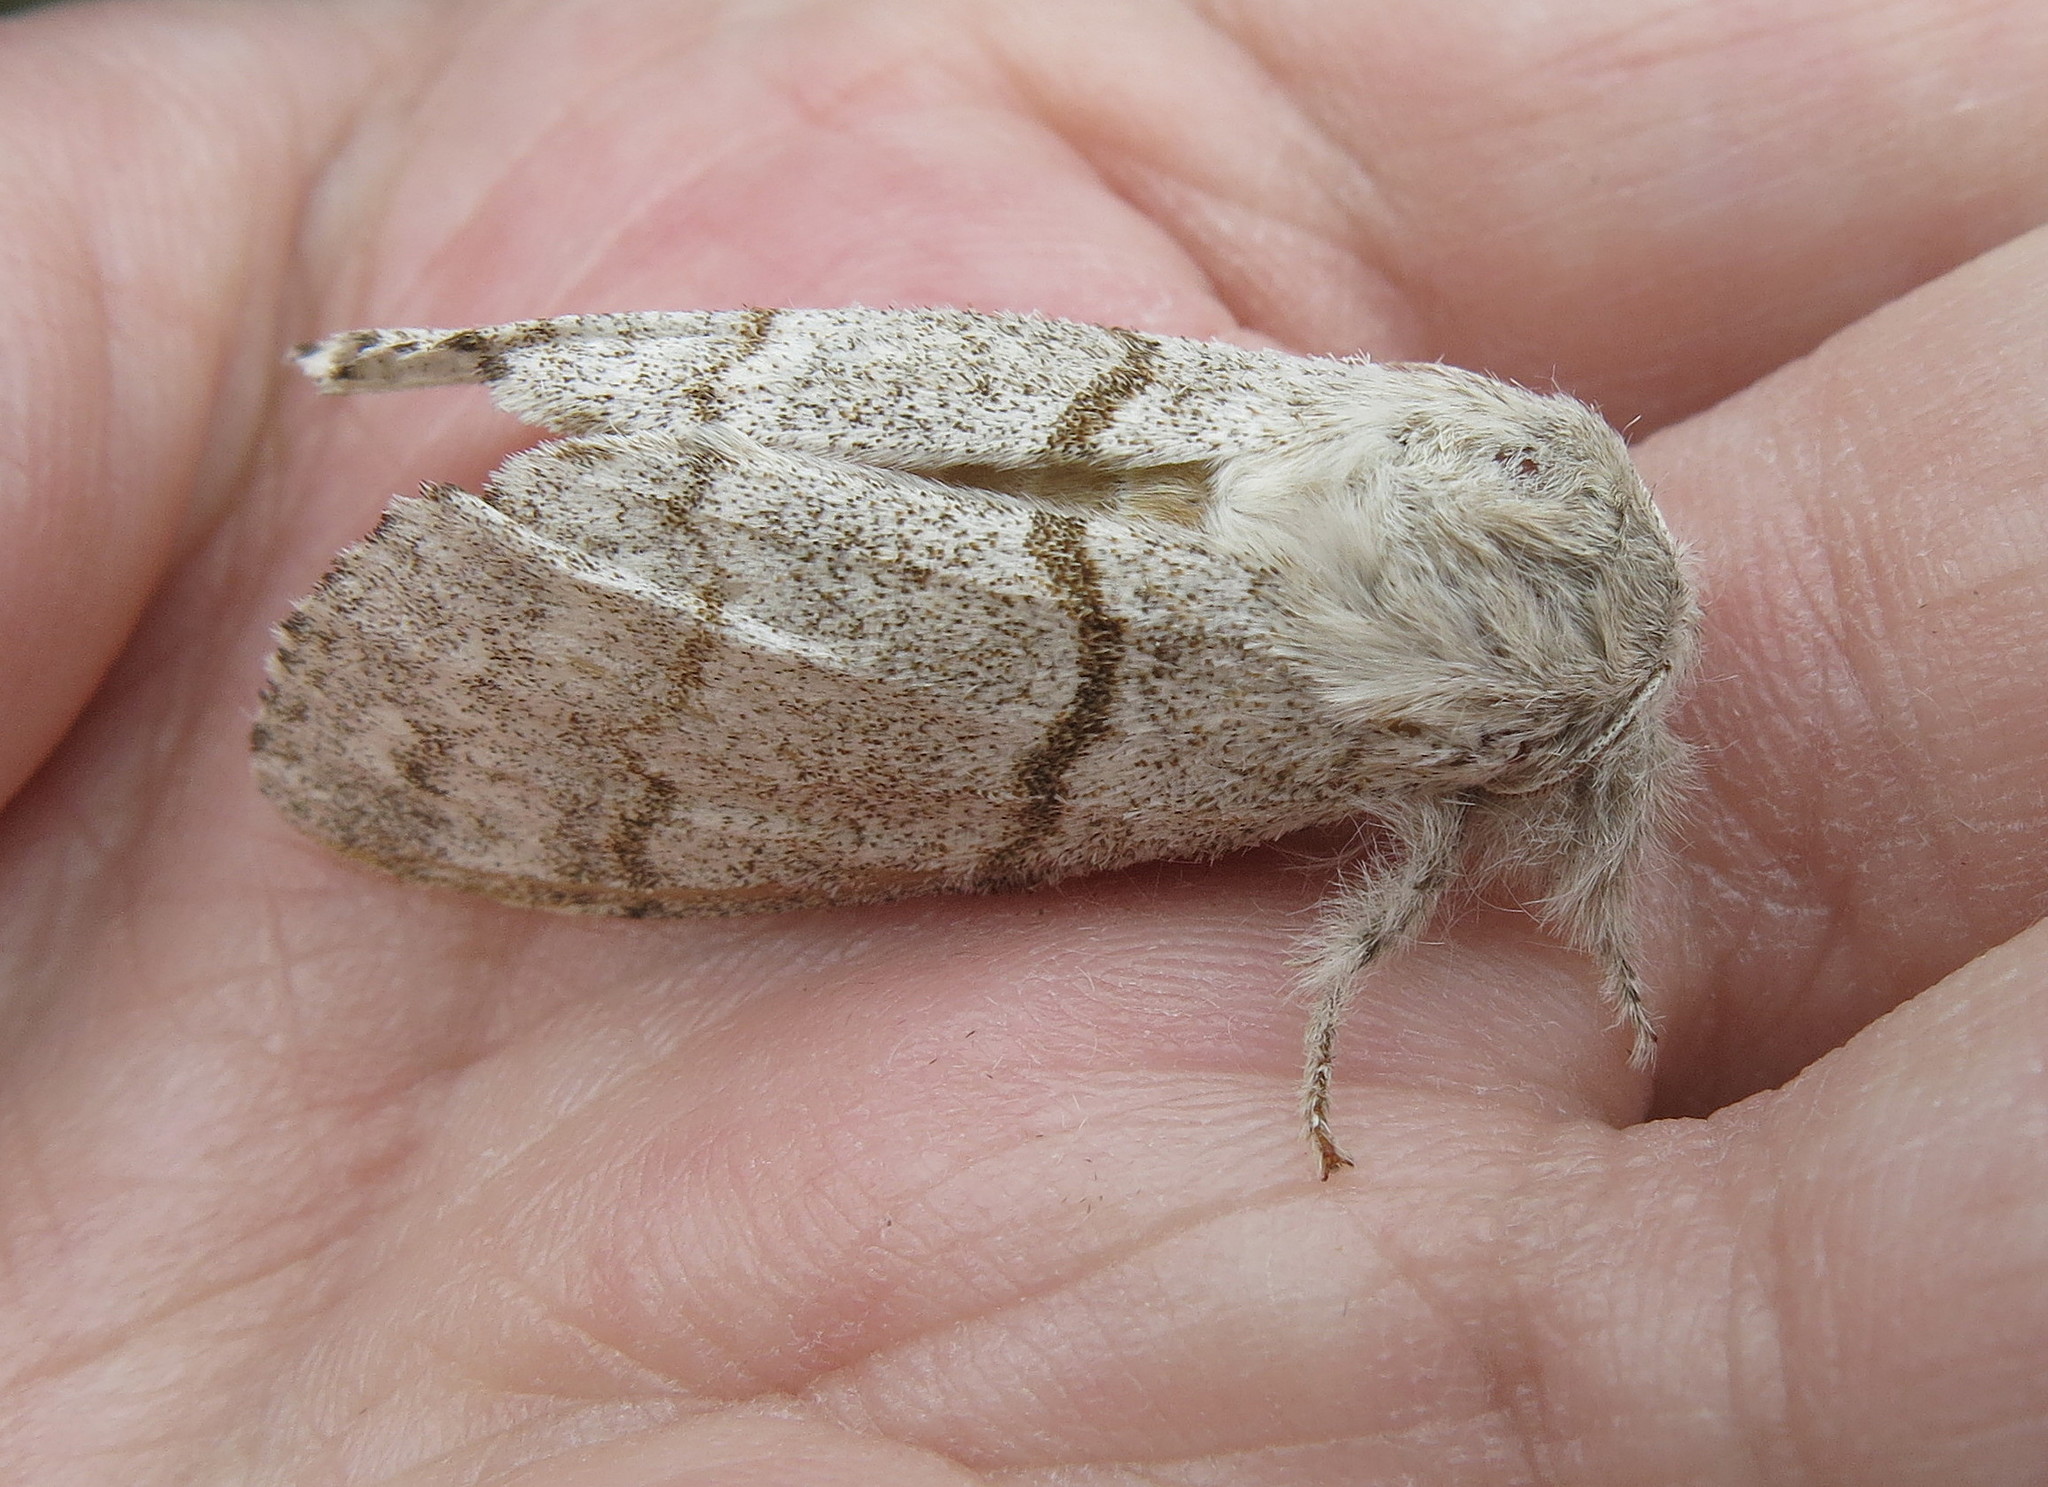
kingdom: Animalia
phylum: Arthropoda
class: Insecta
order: Lepidoptera
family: Erebidae
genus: Calliteara
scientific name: Calliteara pudibunda
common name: Pale tussock
